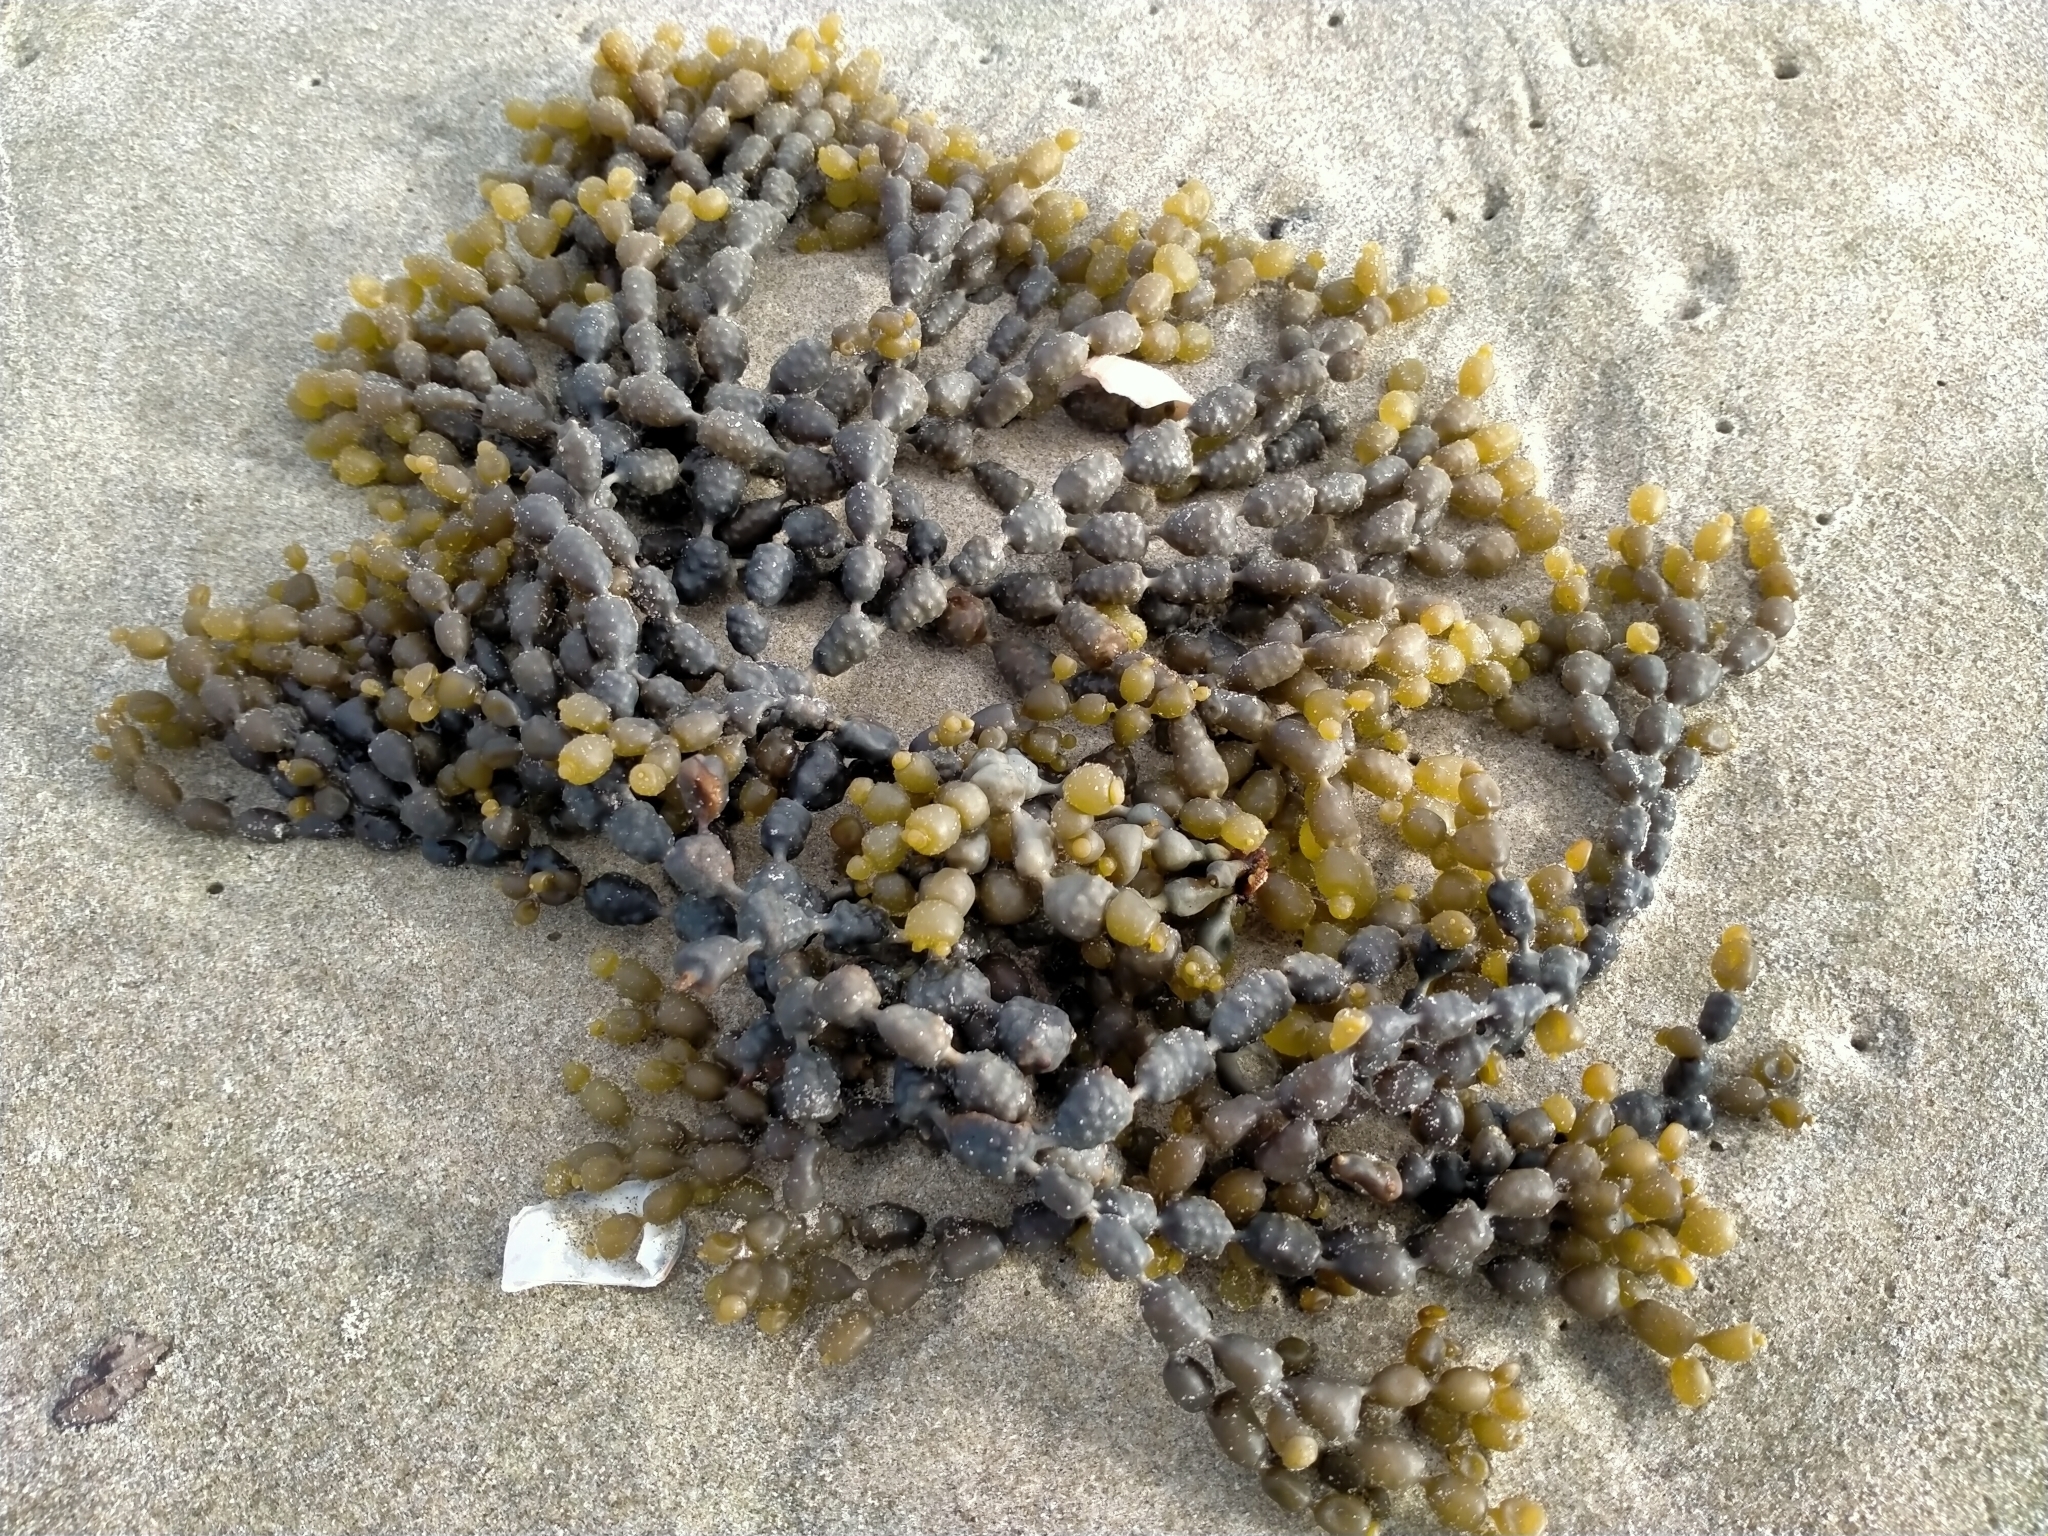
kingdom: Chromista
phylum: Ochrophyta
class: Phaeophyceae
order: Fucales
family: Hormosiraceae
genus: Hormosira
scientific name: Hormosira banksii
